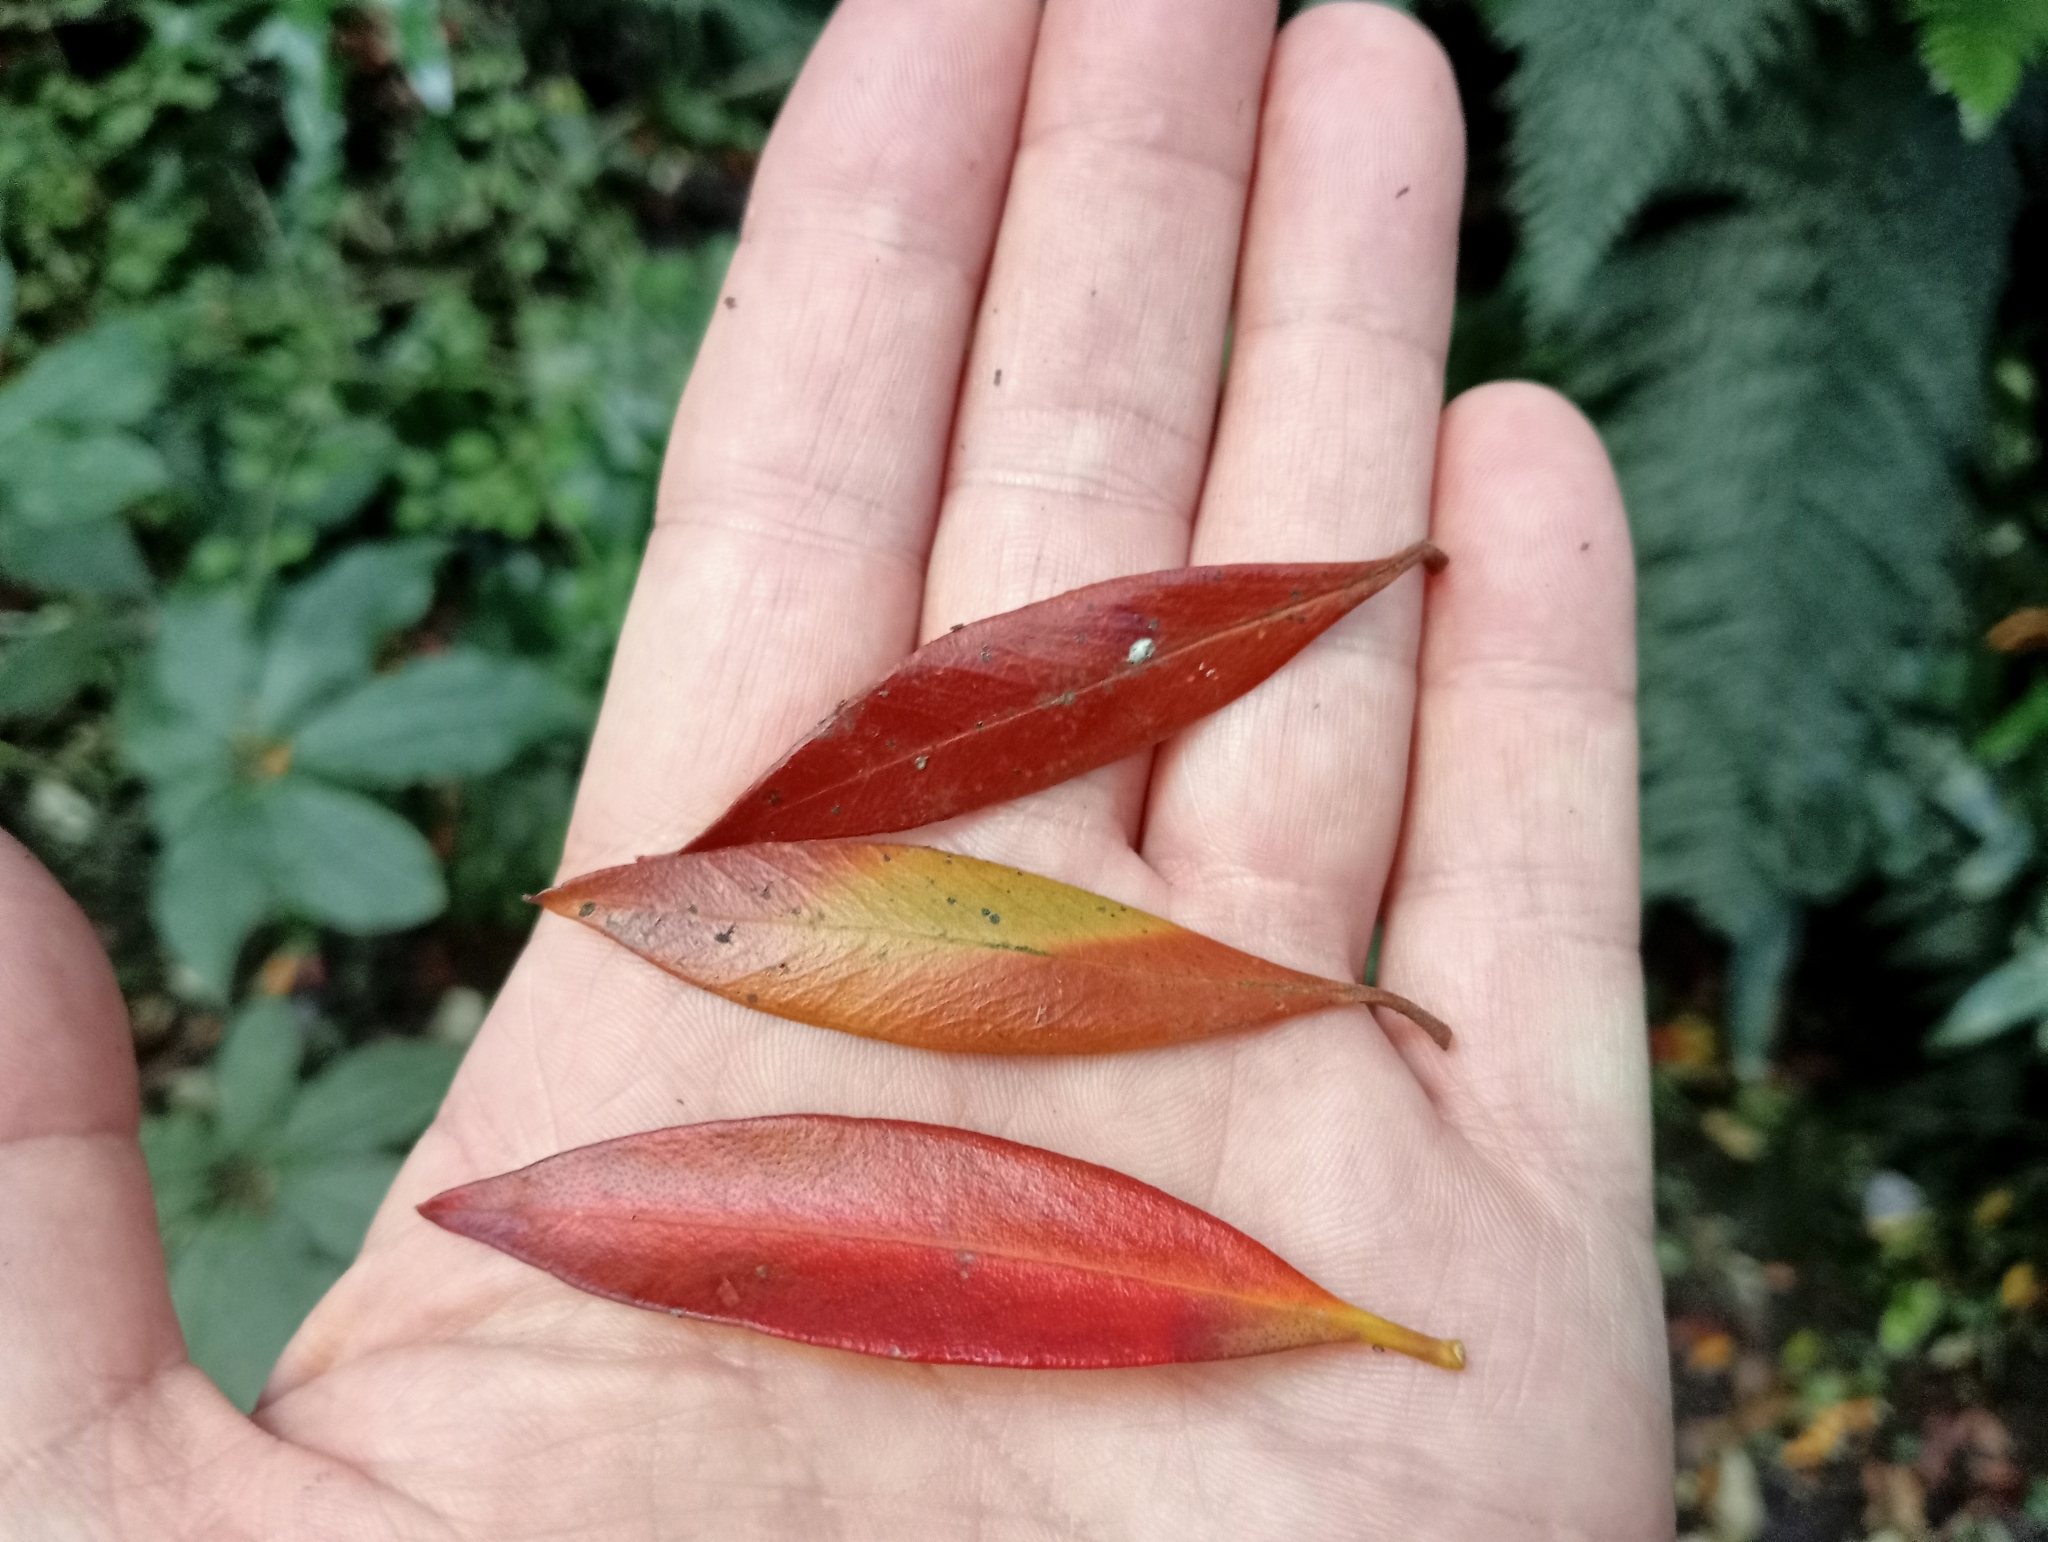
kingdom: Plantae
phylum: Tracheophyta
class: Magnoliopsida
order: Myrtales
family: Myrtaceae
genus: Metrosideros
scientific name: Metrosideros umbellata
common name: Southern rata
